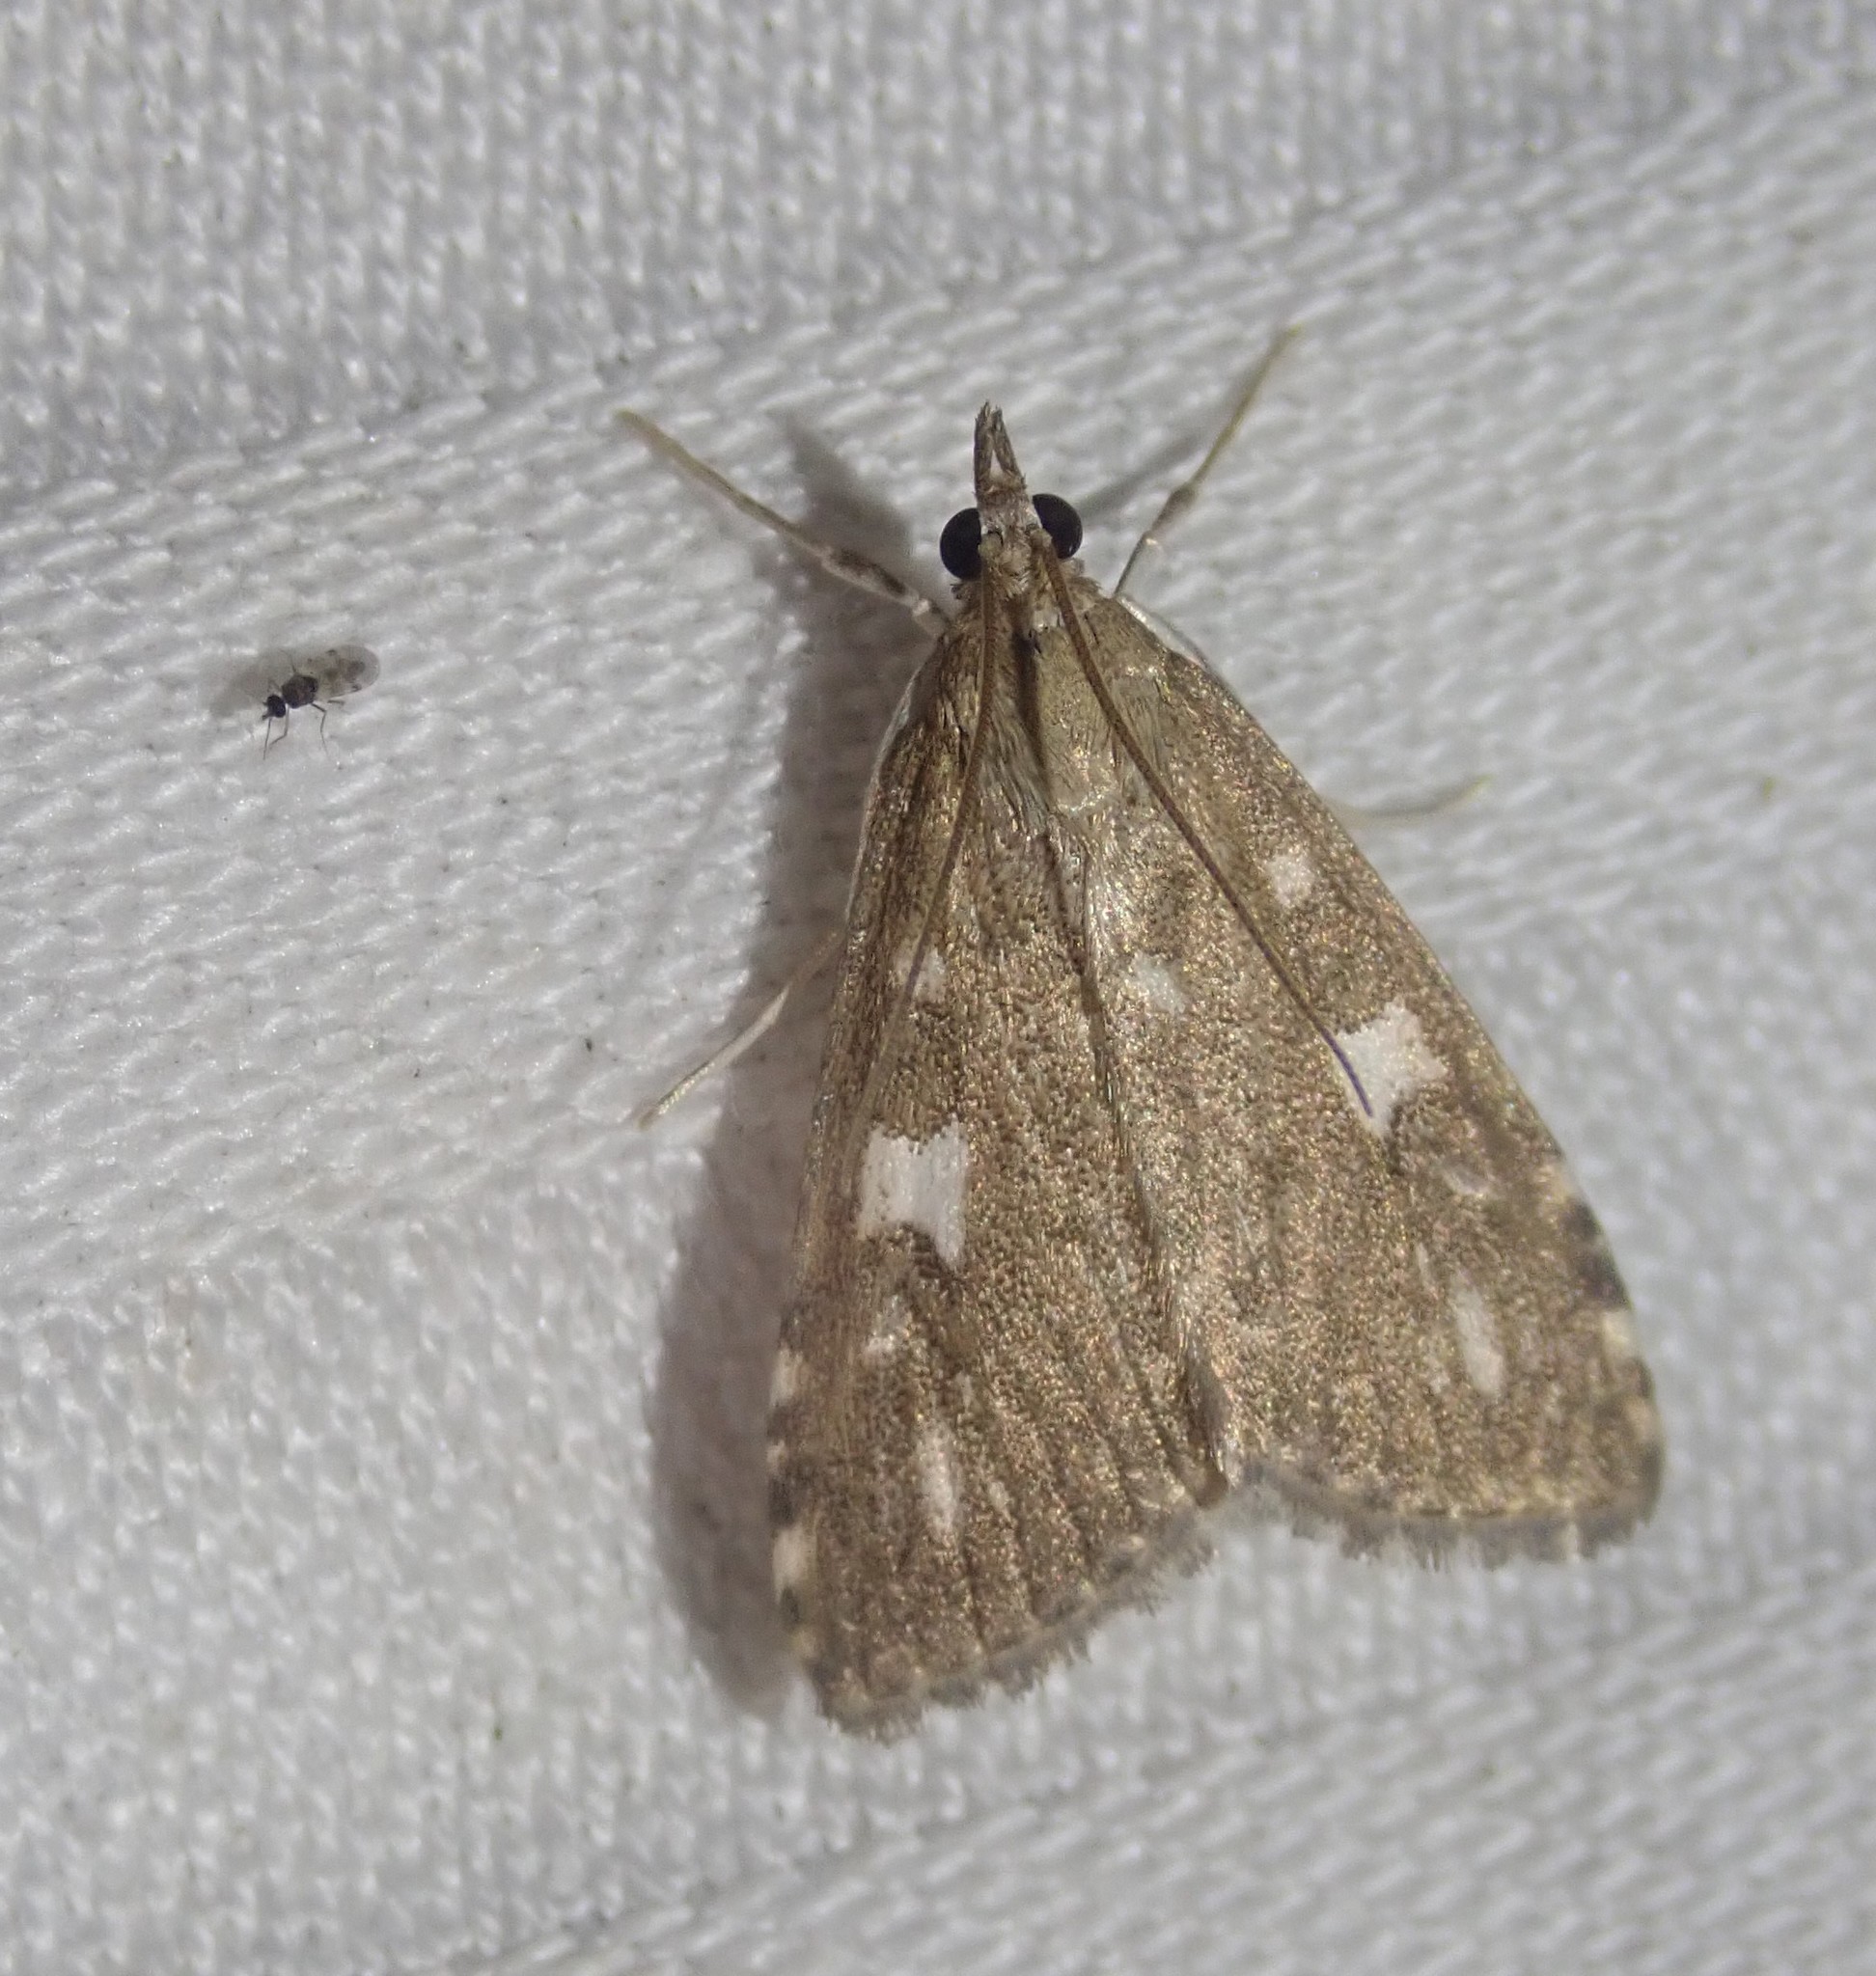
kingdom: Animalia
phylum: Arthropoda
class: Insecta
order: Lepidoptera
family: Crambidae
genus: Udea
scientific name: Udea olivalis
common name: Olive pearl
